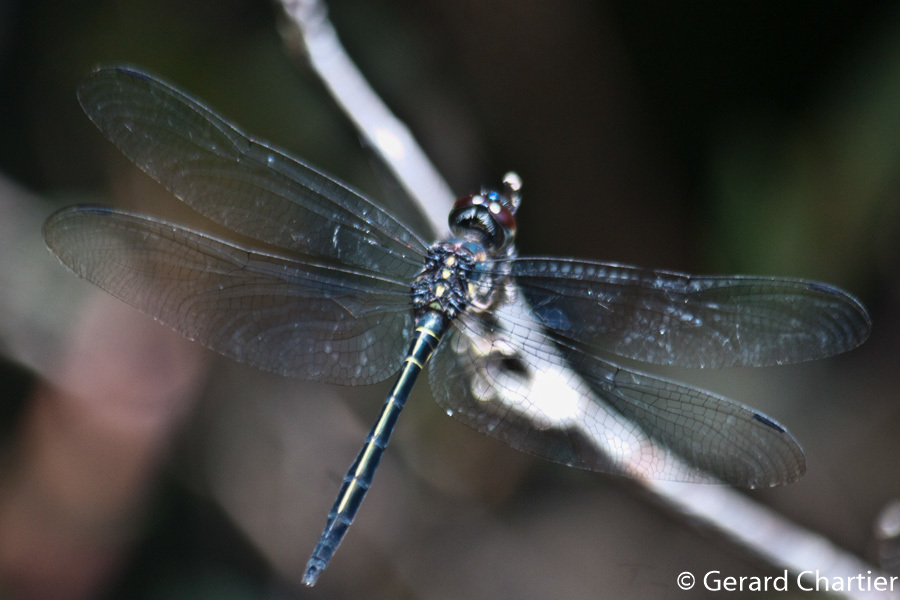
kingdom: Animalia
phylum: Arthropoda
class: Insecta
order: Odonata
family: Libellulidae
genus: Zygonyx
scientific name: Zygonyx iris
